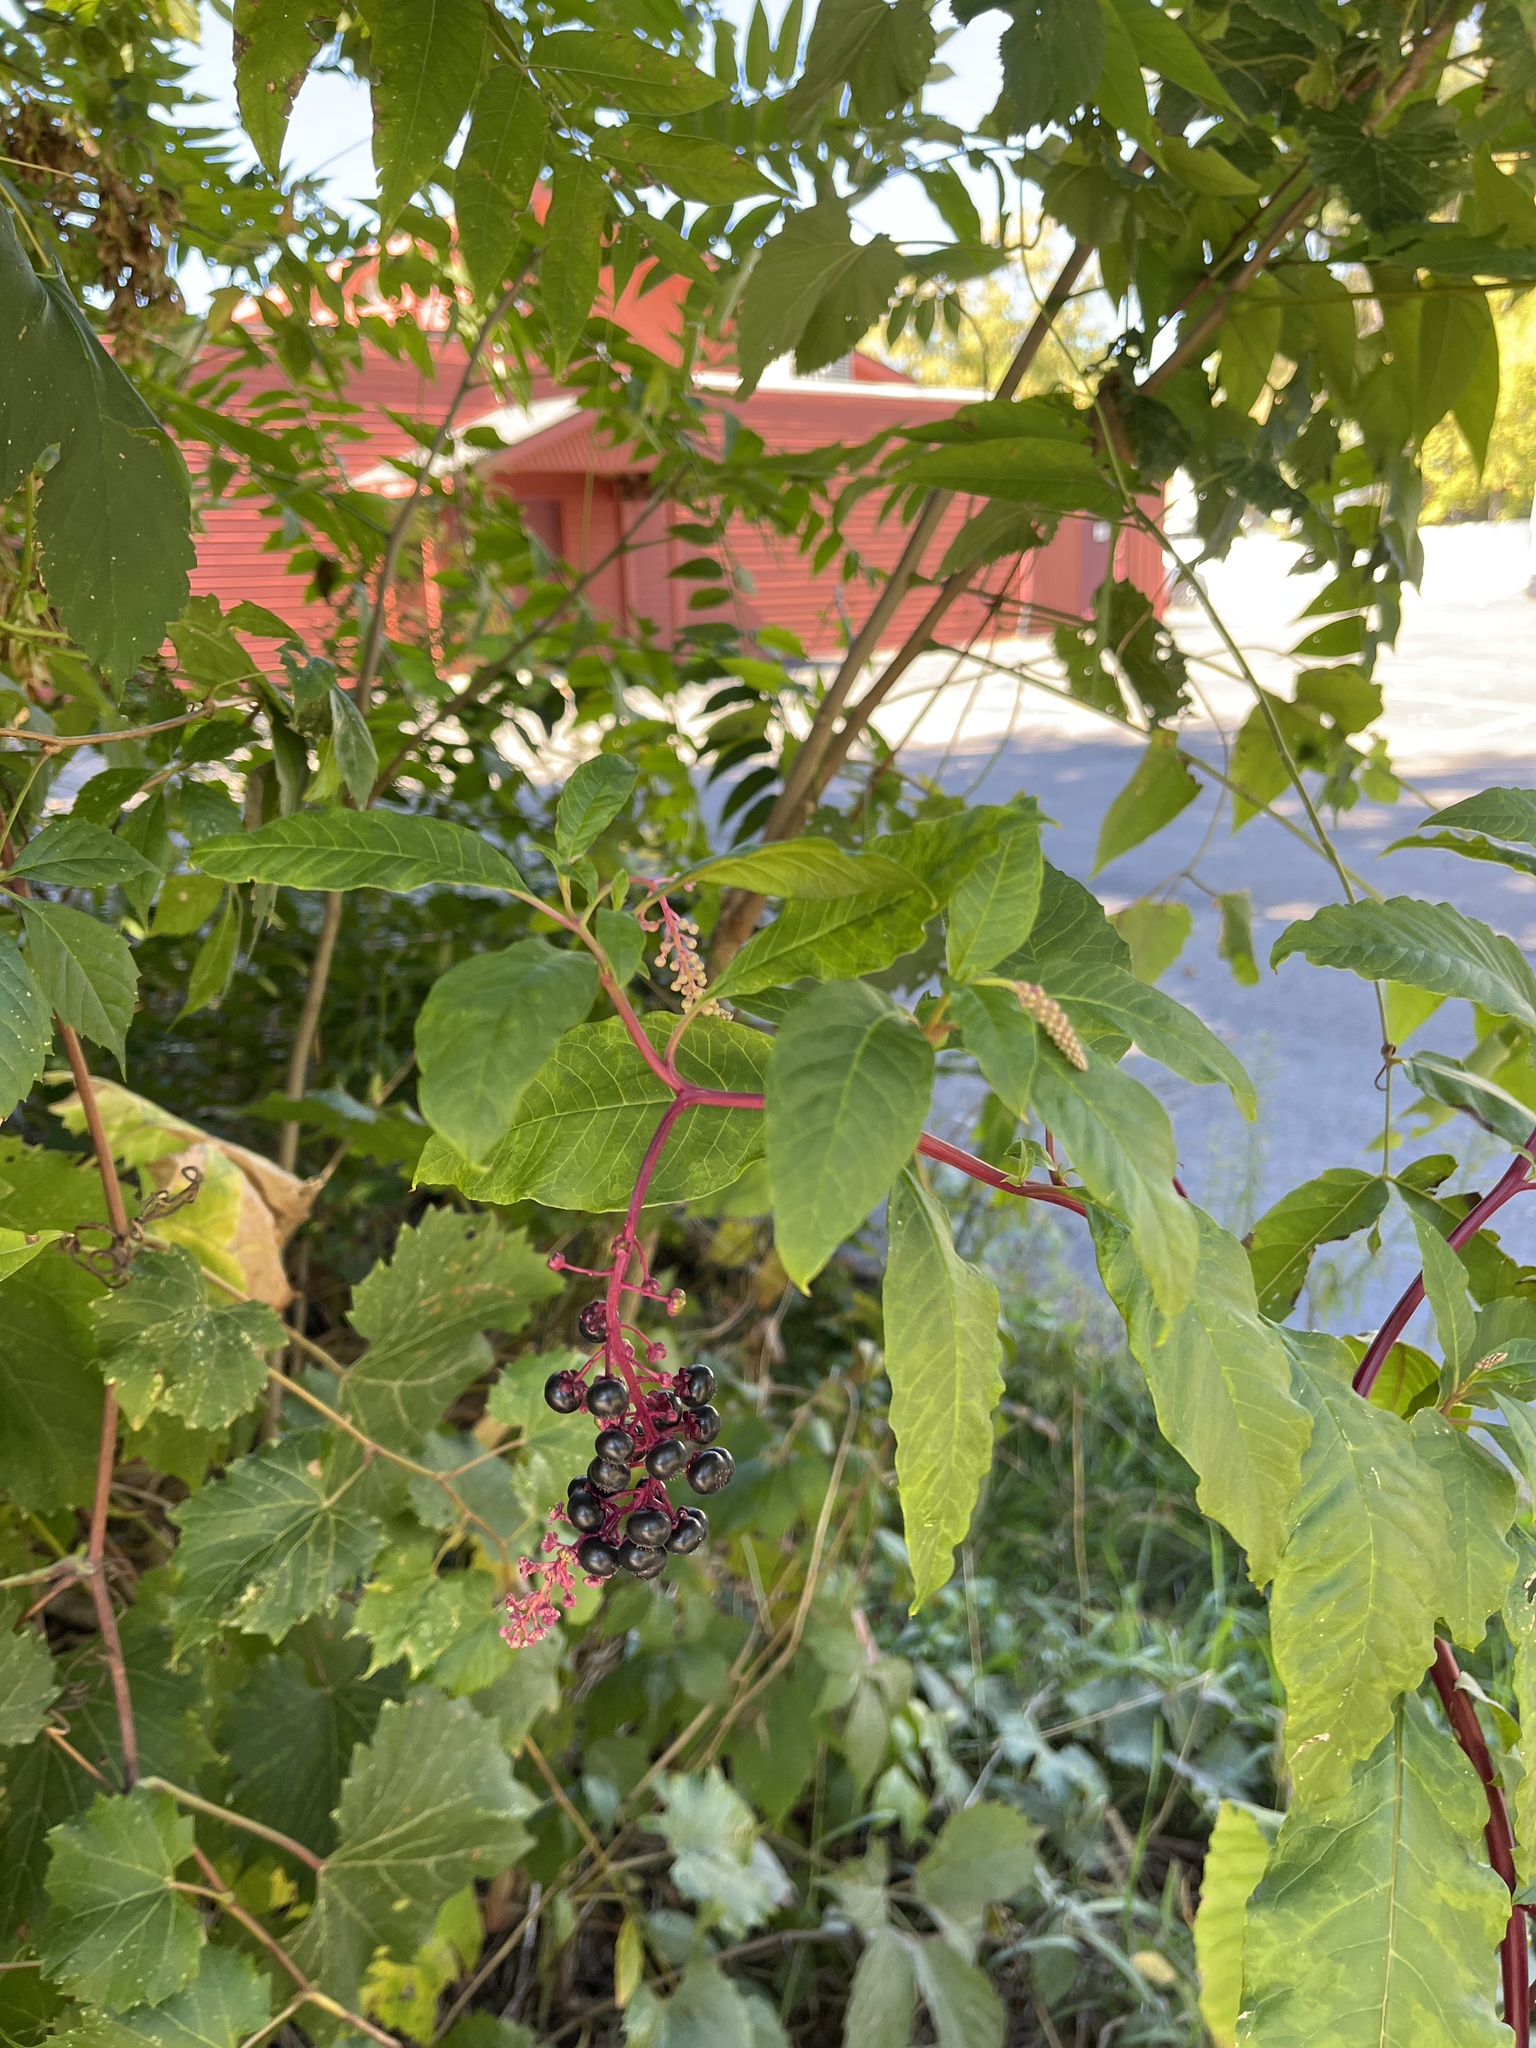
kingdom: Plantae
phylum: Tracheophyta
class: Magnoliopsida
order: Caryophyllales
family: Phytolaccaceae
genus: Phytolacca
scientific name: Phytolacca americana
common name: American pokeweed
